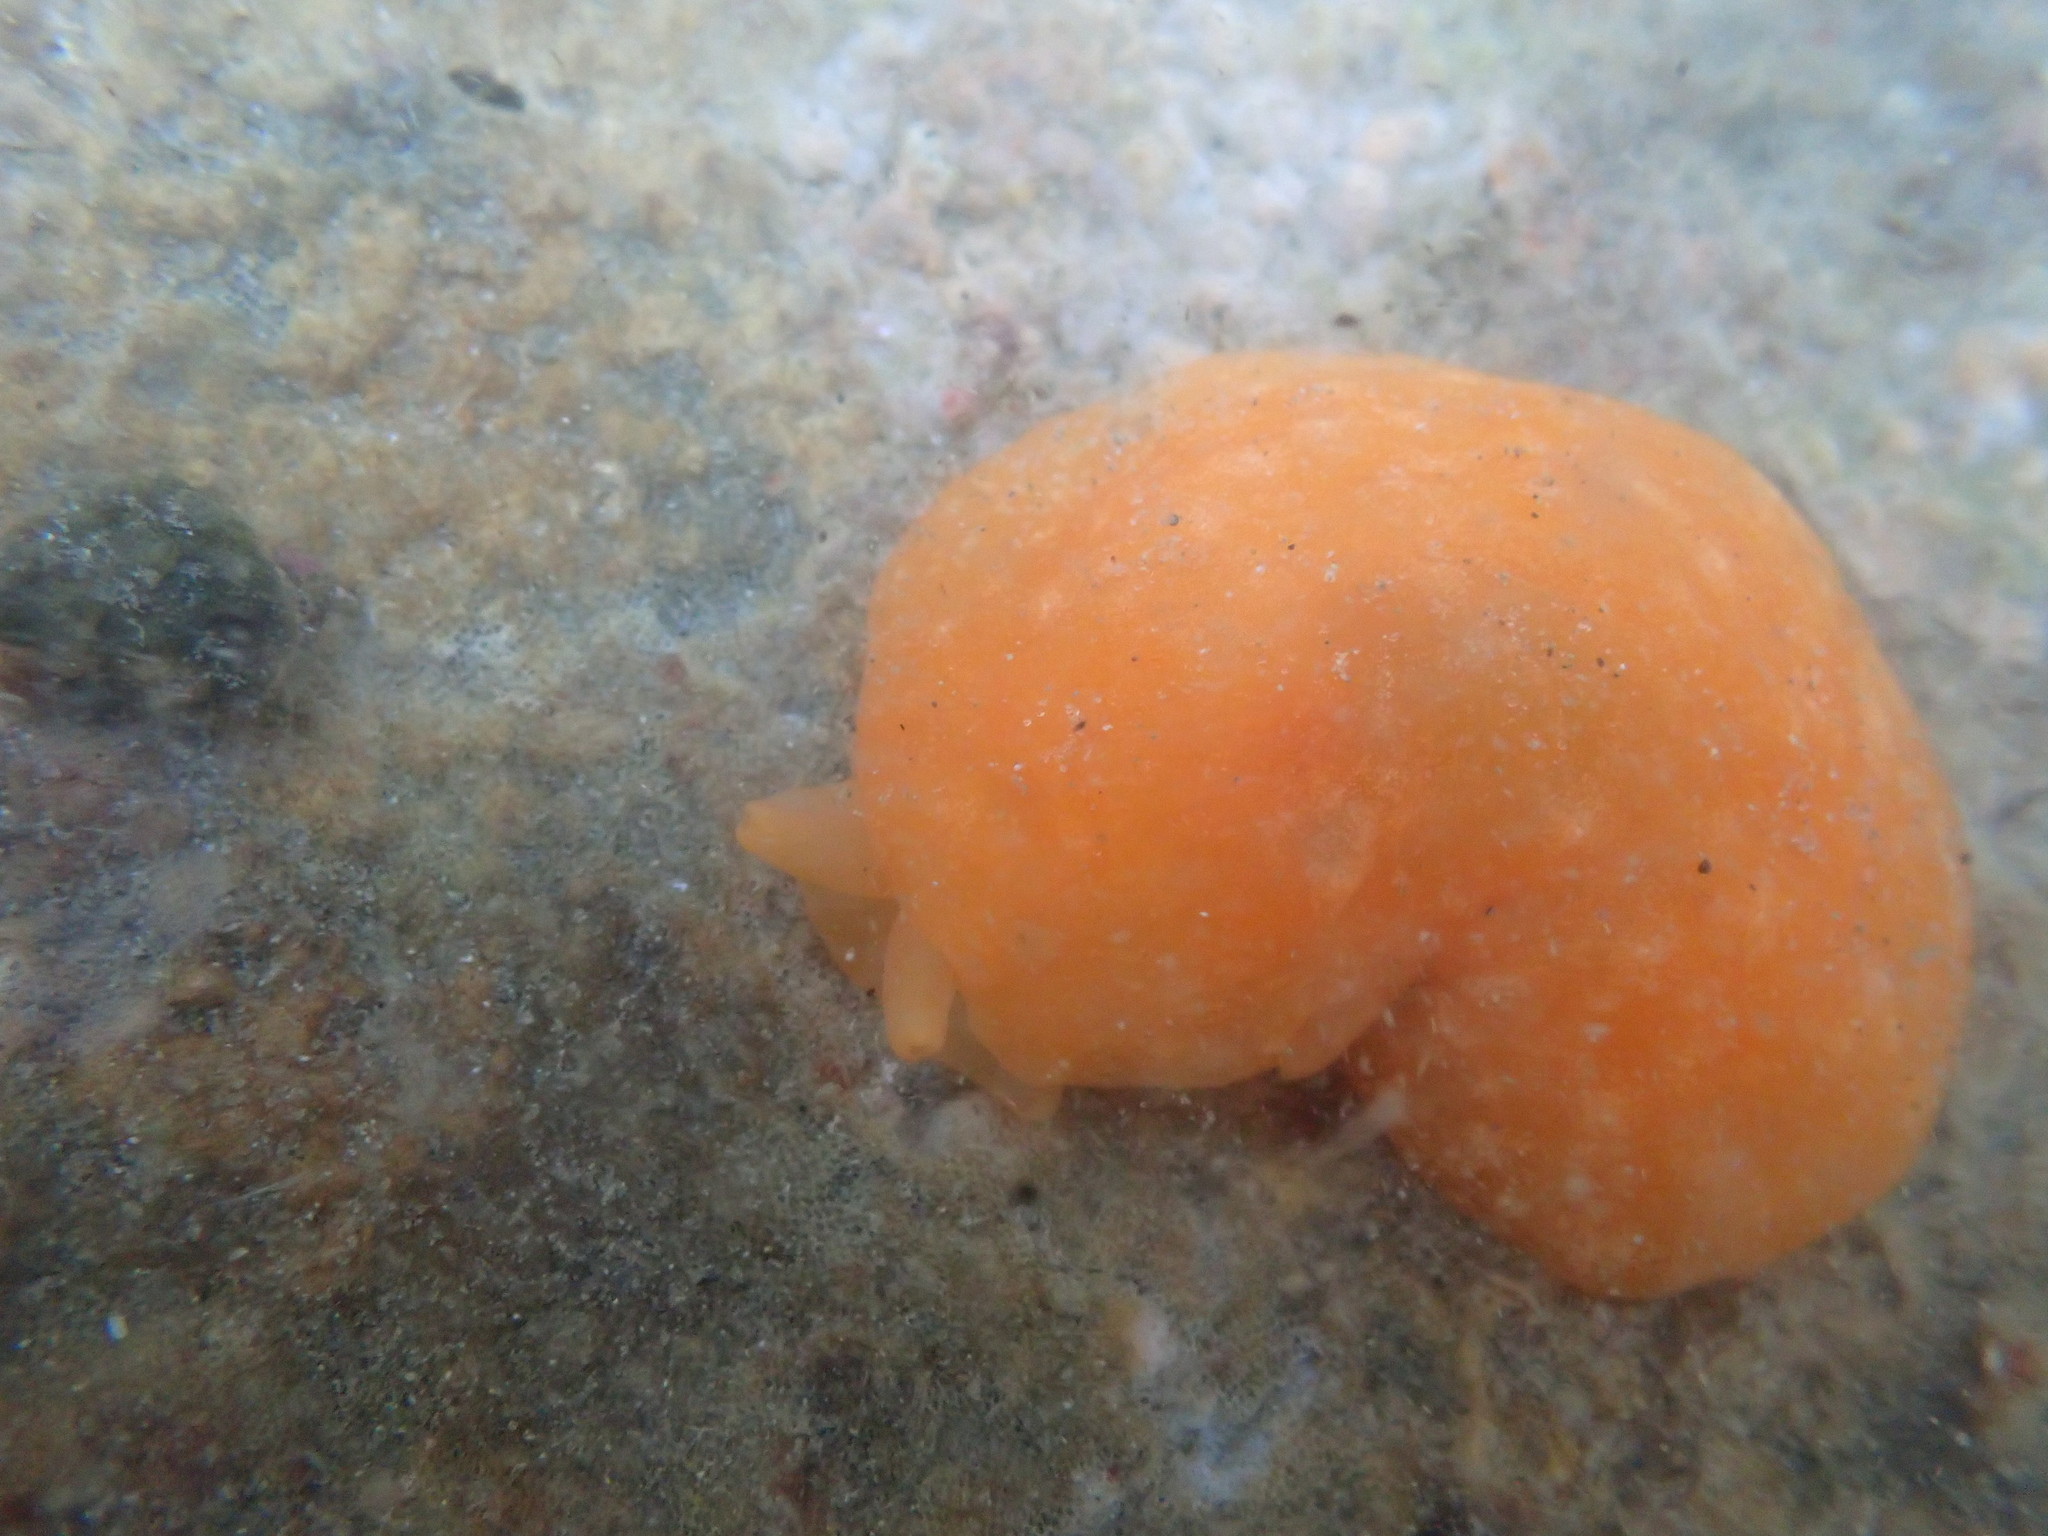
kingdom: Animalia
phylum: Mollusca
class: Gastropoda
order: Pleurobranchida
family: Pleurobranchidae
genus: Berthellina
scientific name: Berthellina citrina
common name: Lemon pleurobranch
